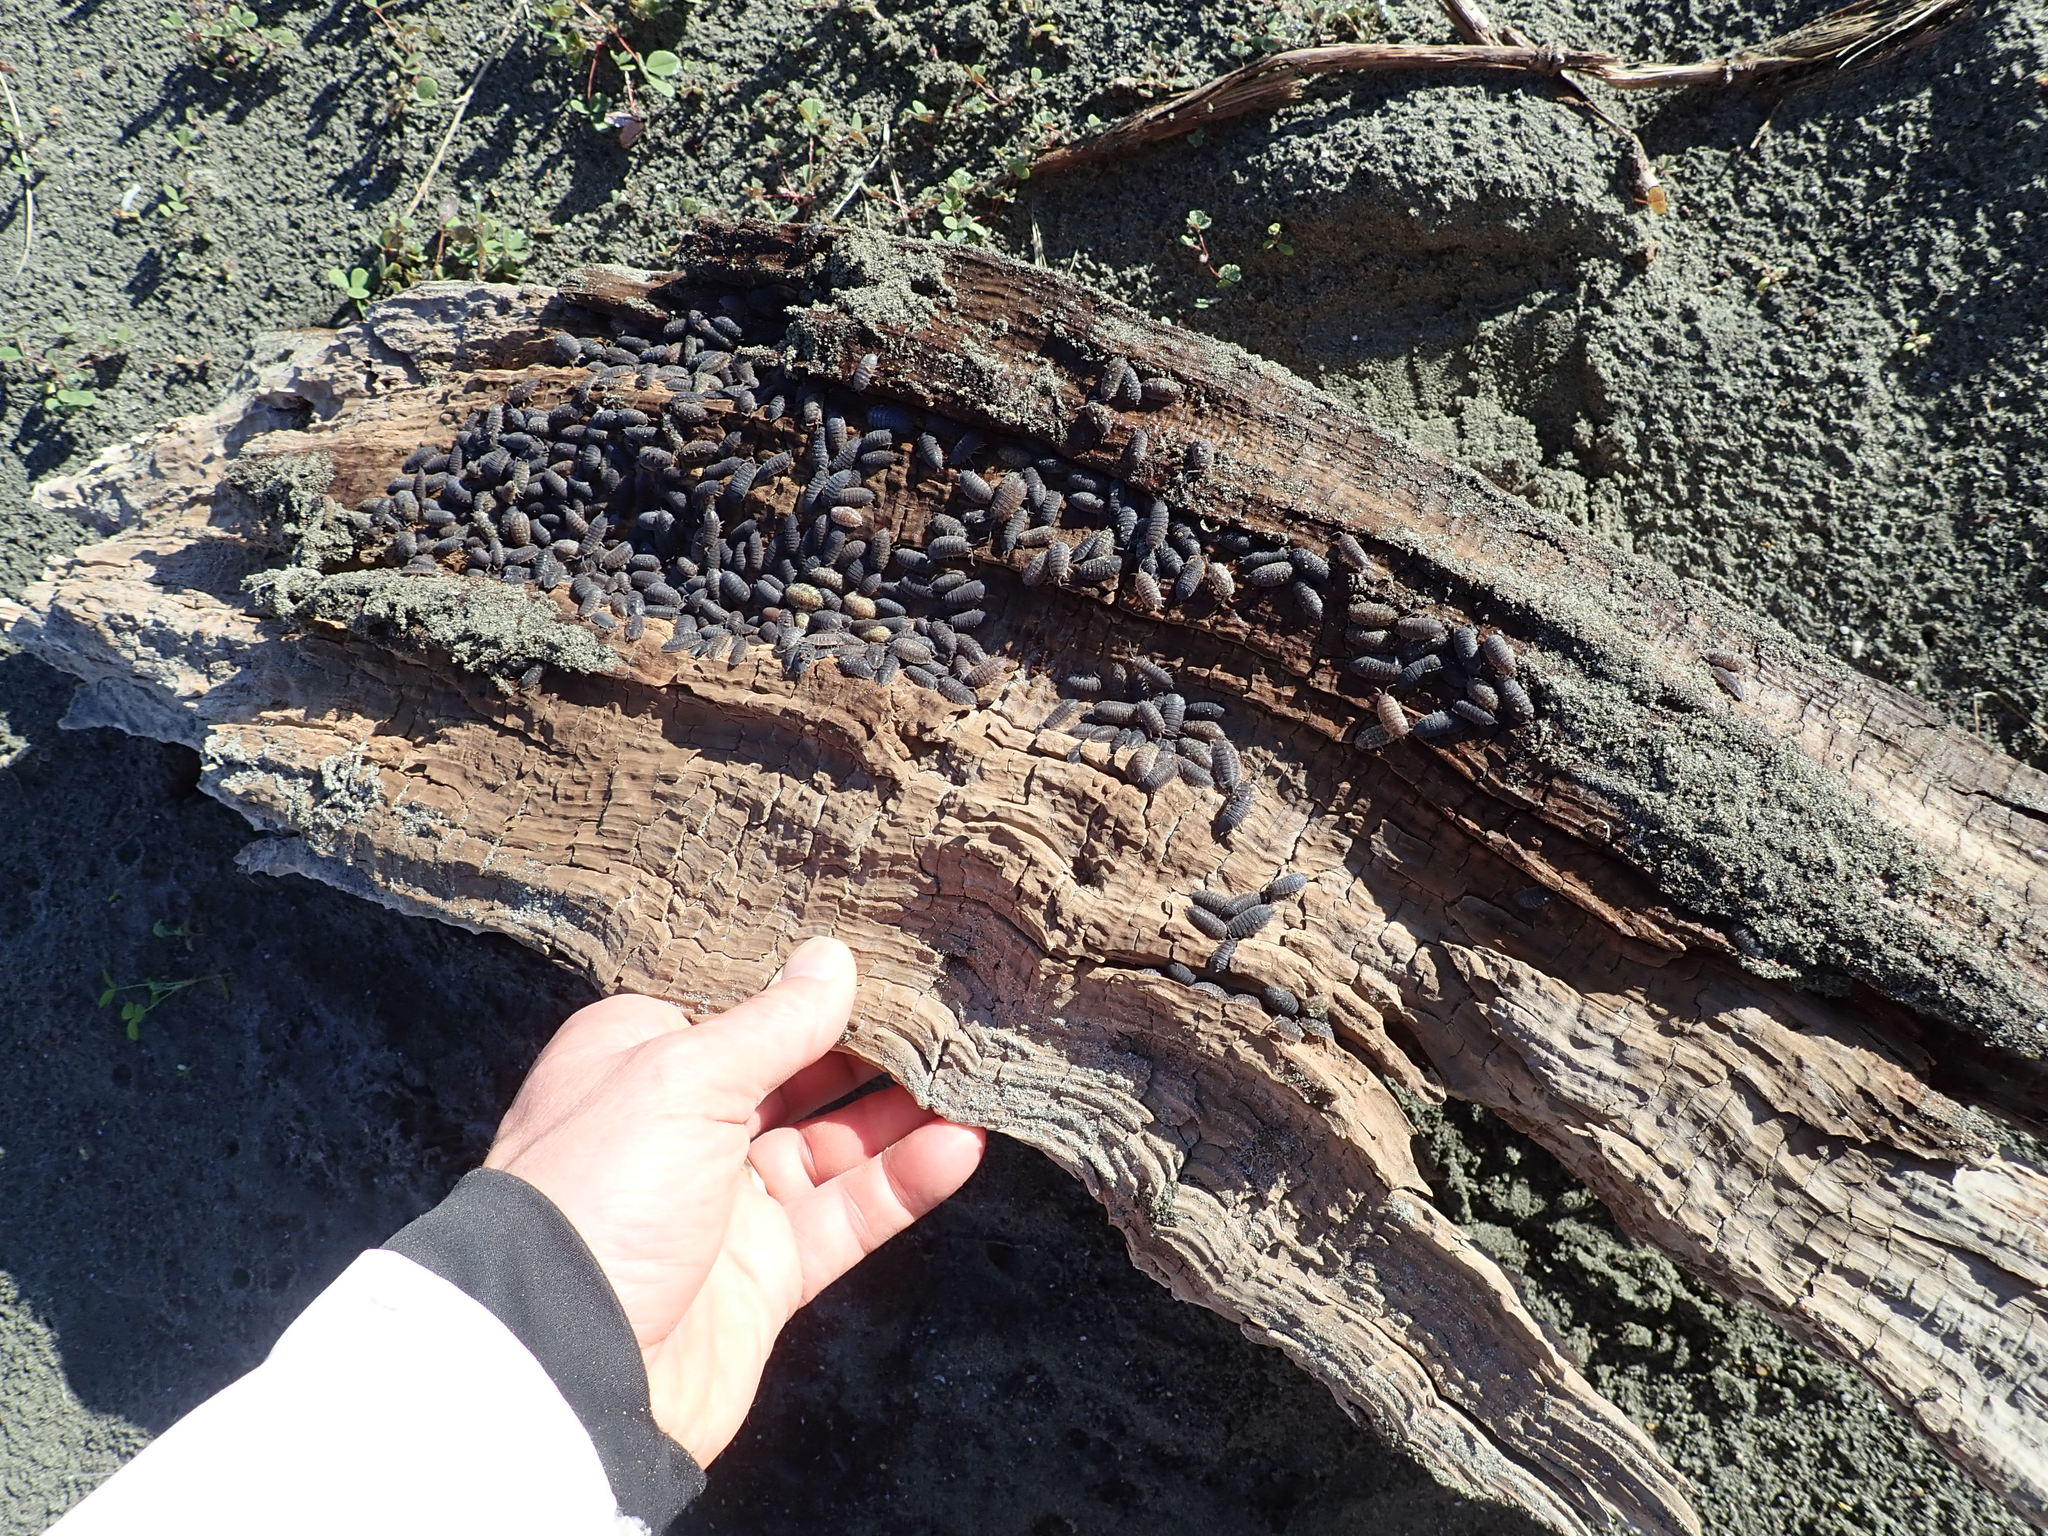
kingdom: Animalia
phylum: Arthropoda
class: Malacostraca
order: Isopoda
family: Porcellionidae
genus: Porcellio
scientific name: Porcellio scaber
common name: Common rough woodlouse
